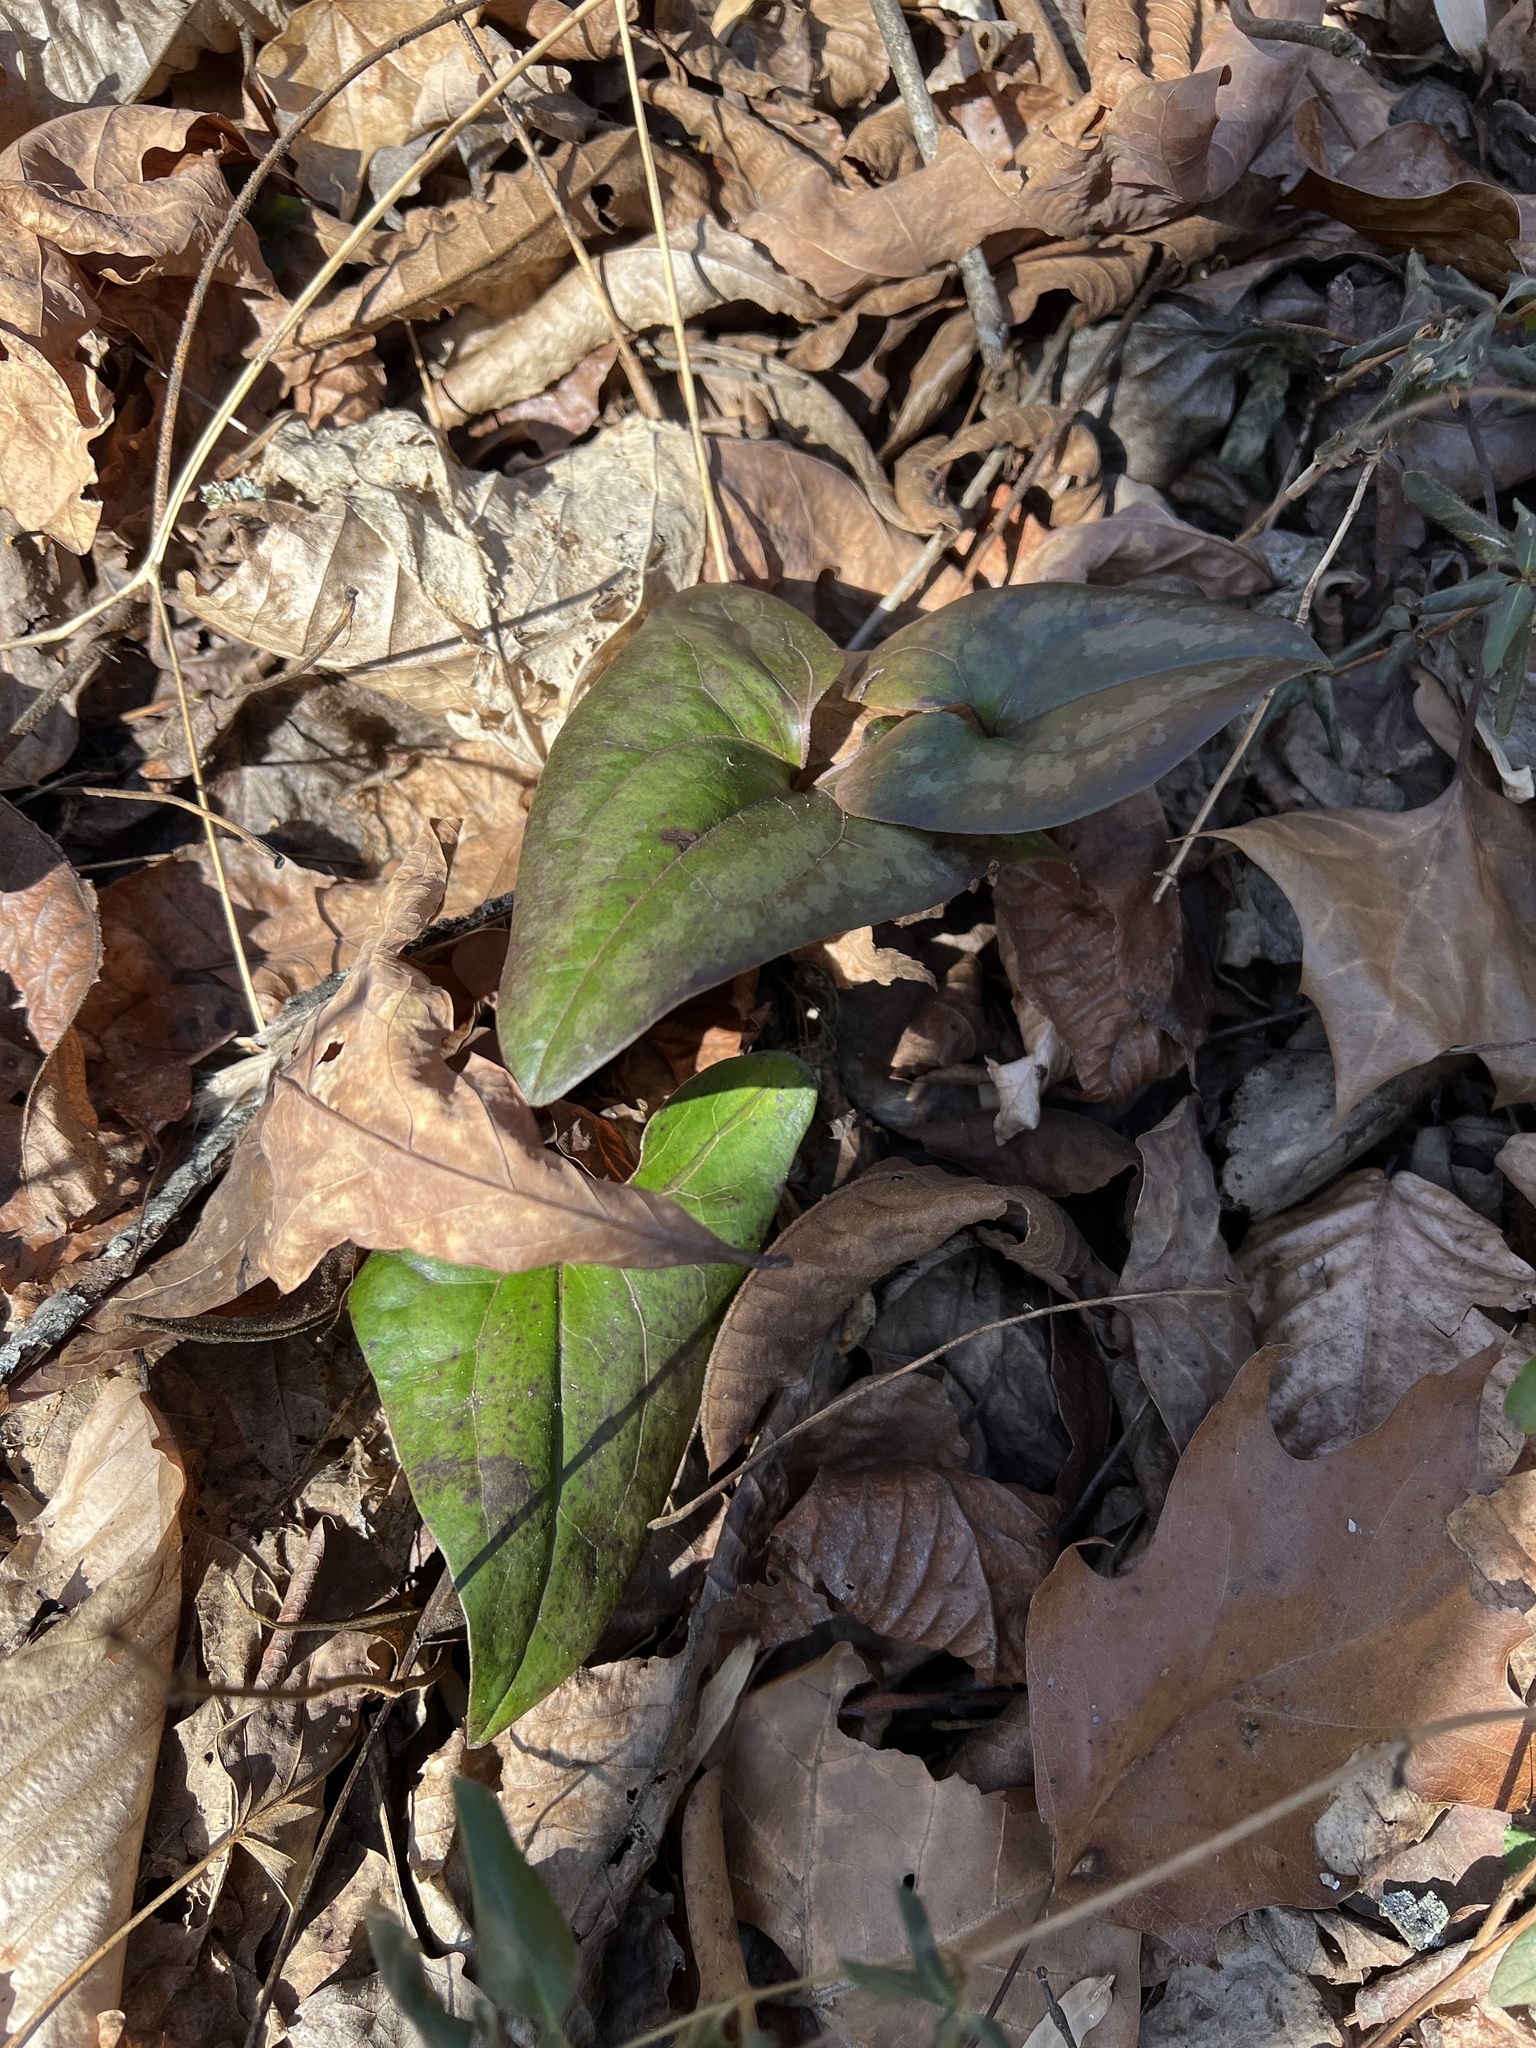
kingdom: Plantae
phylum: Tracheophyta
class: Magnoliopsida
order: Piperales
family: Aristolochiaceae
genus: Hexastylis
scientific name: Hexastylis arifolia
